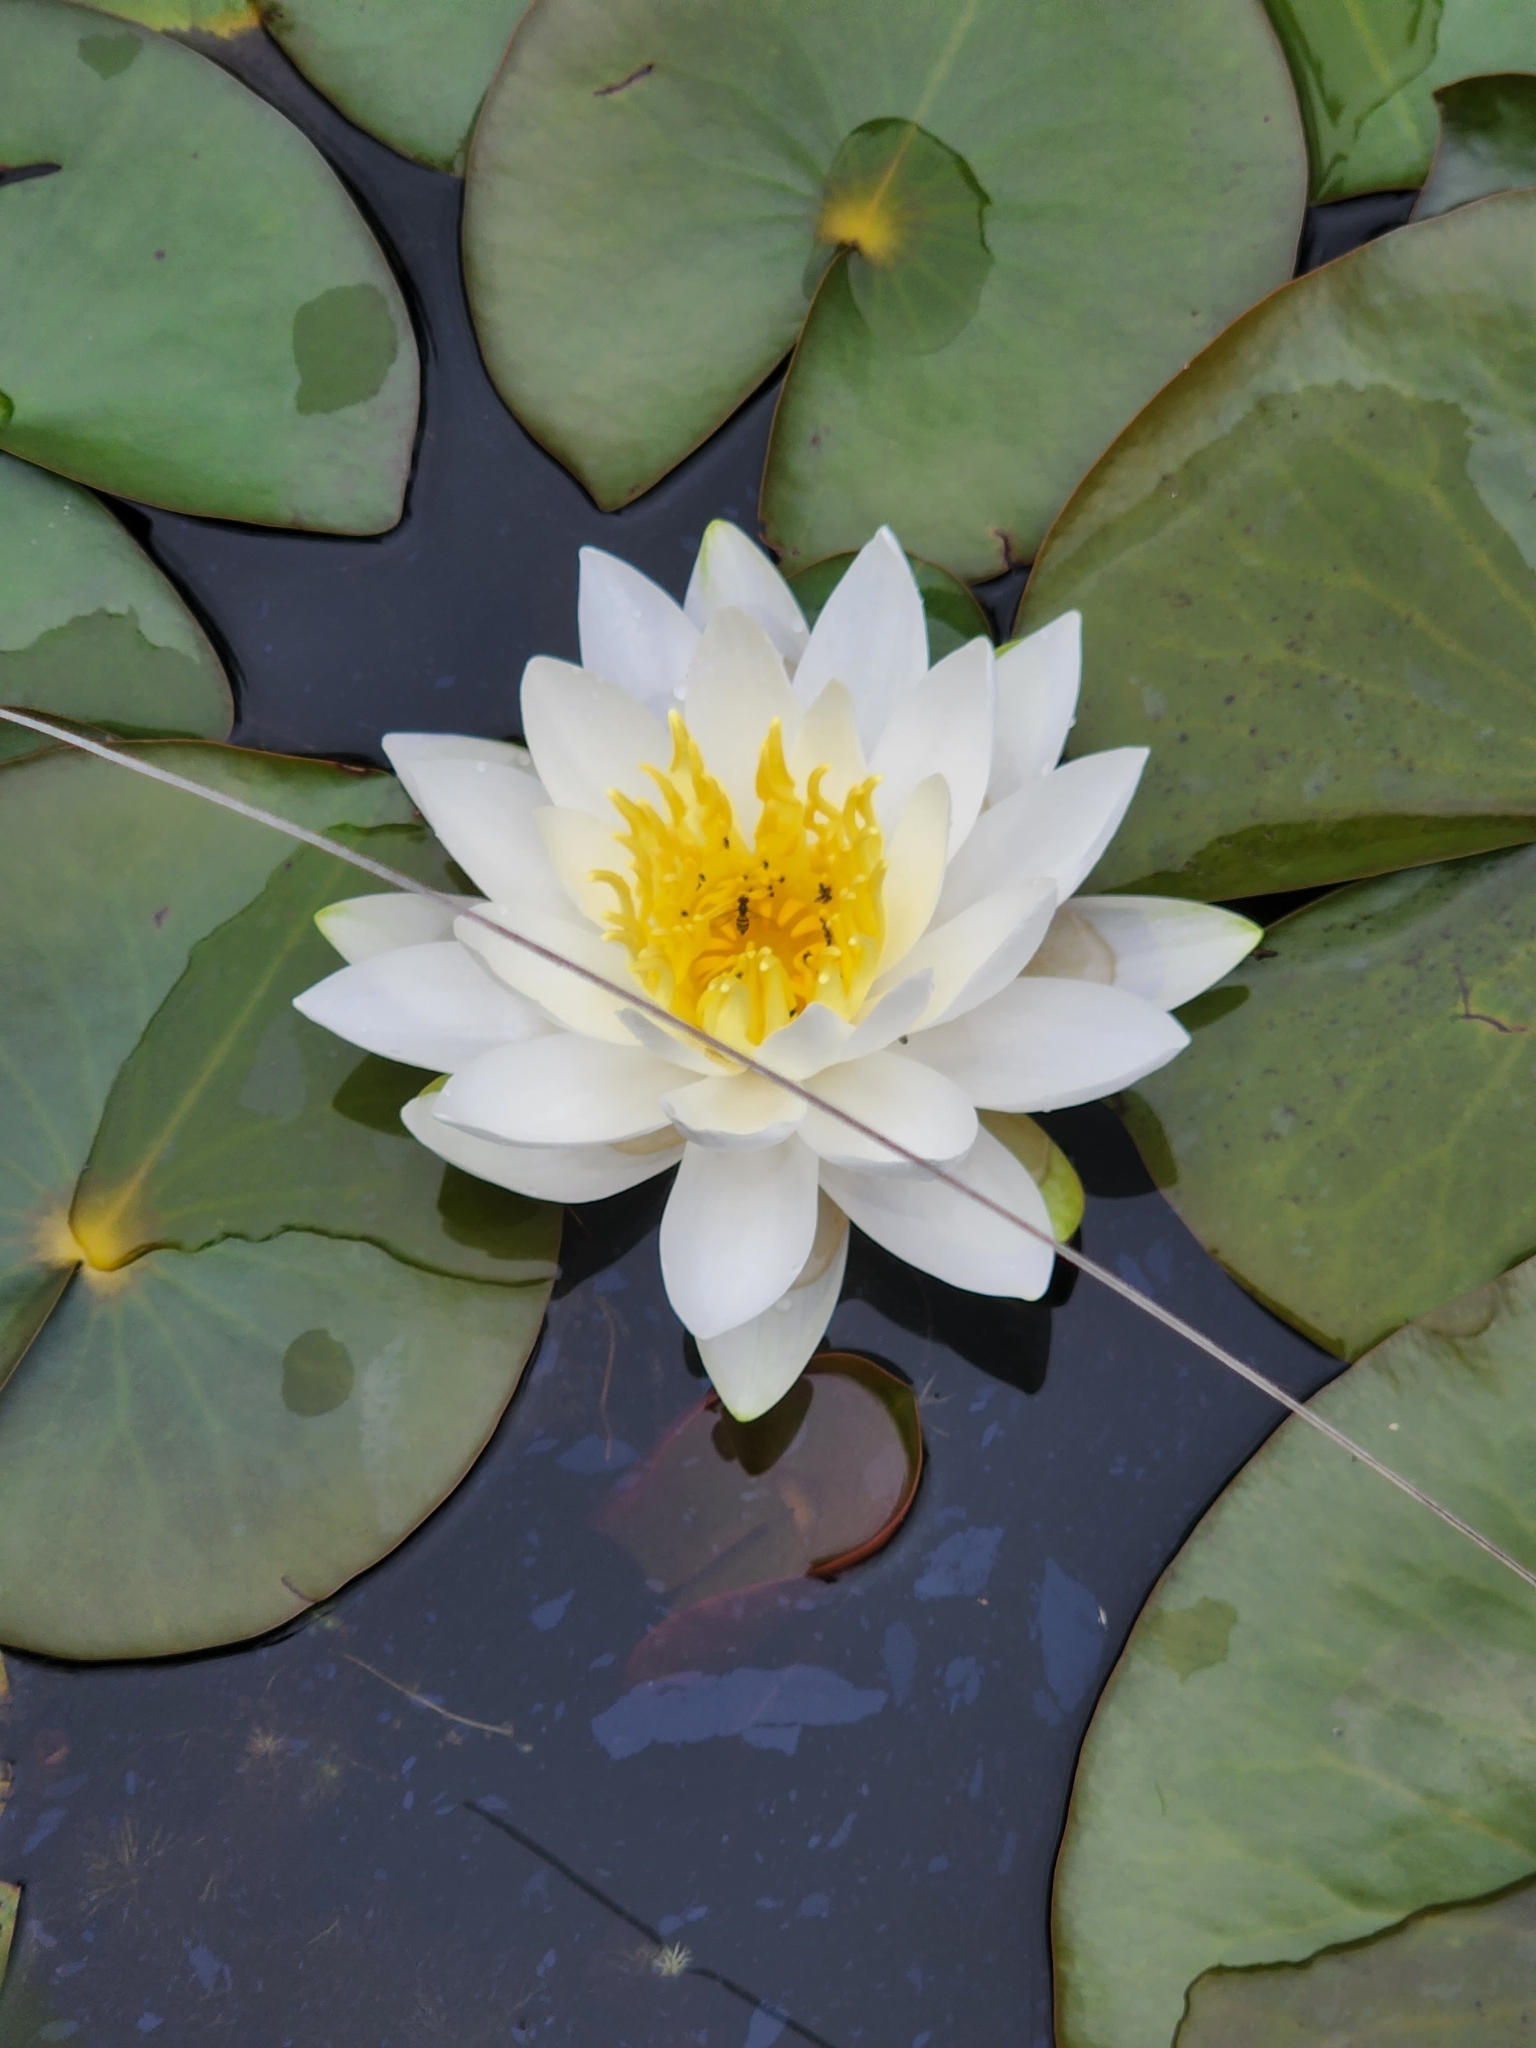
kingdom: Plantae
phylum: Tracheophyta
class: Magnoliopsida
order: Nymphaeales
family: Nymphaeaceae
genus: Nymphaea
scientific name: Nymphaea odorata
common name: Fragrant water-lily
